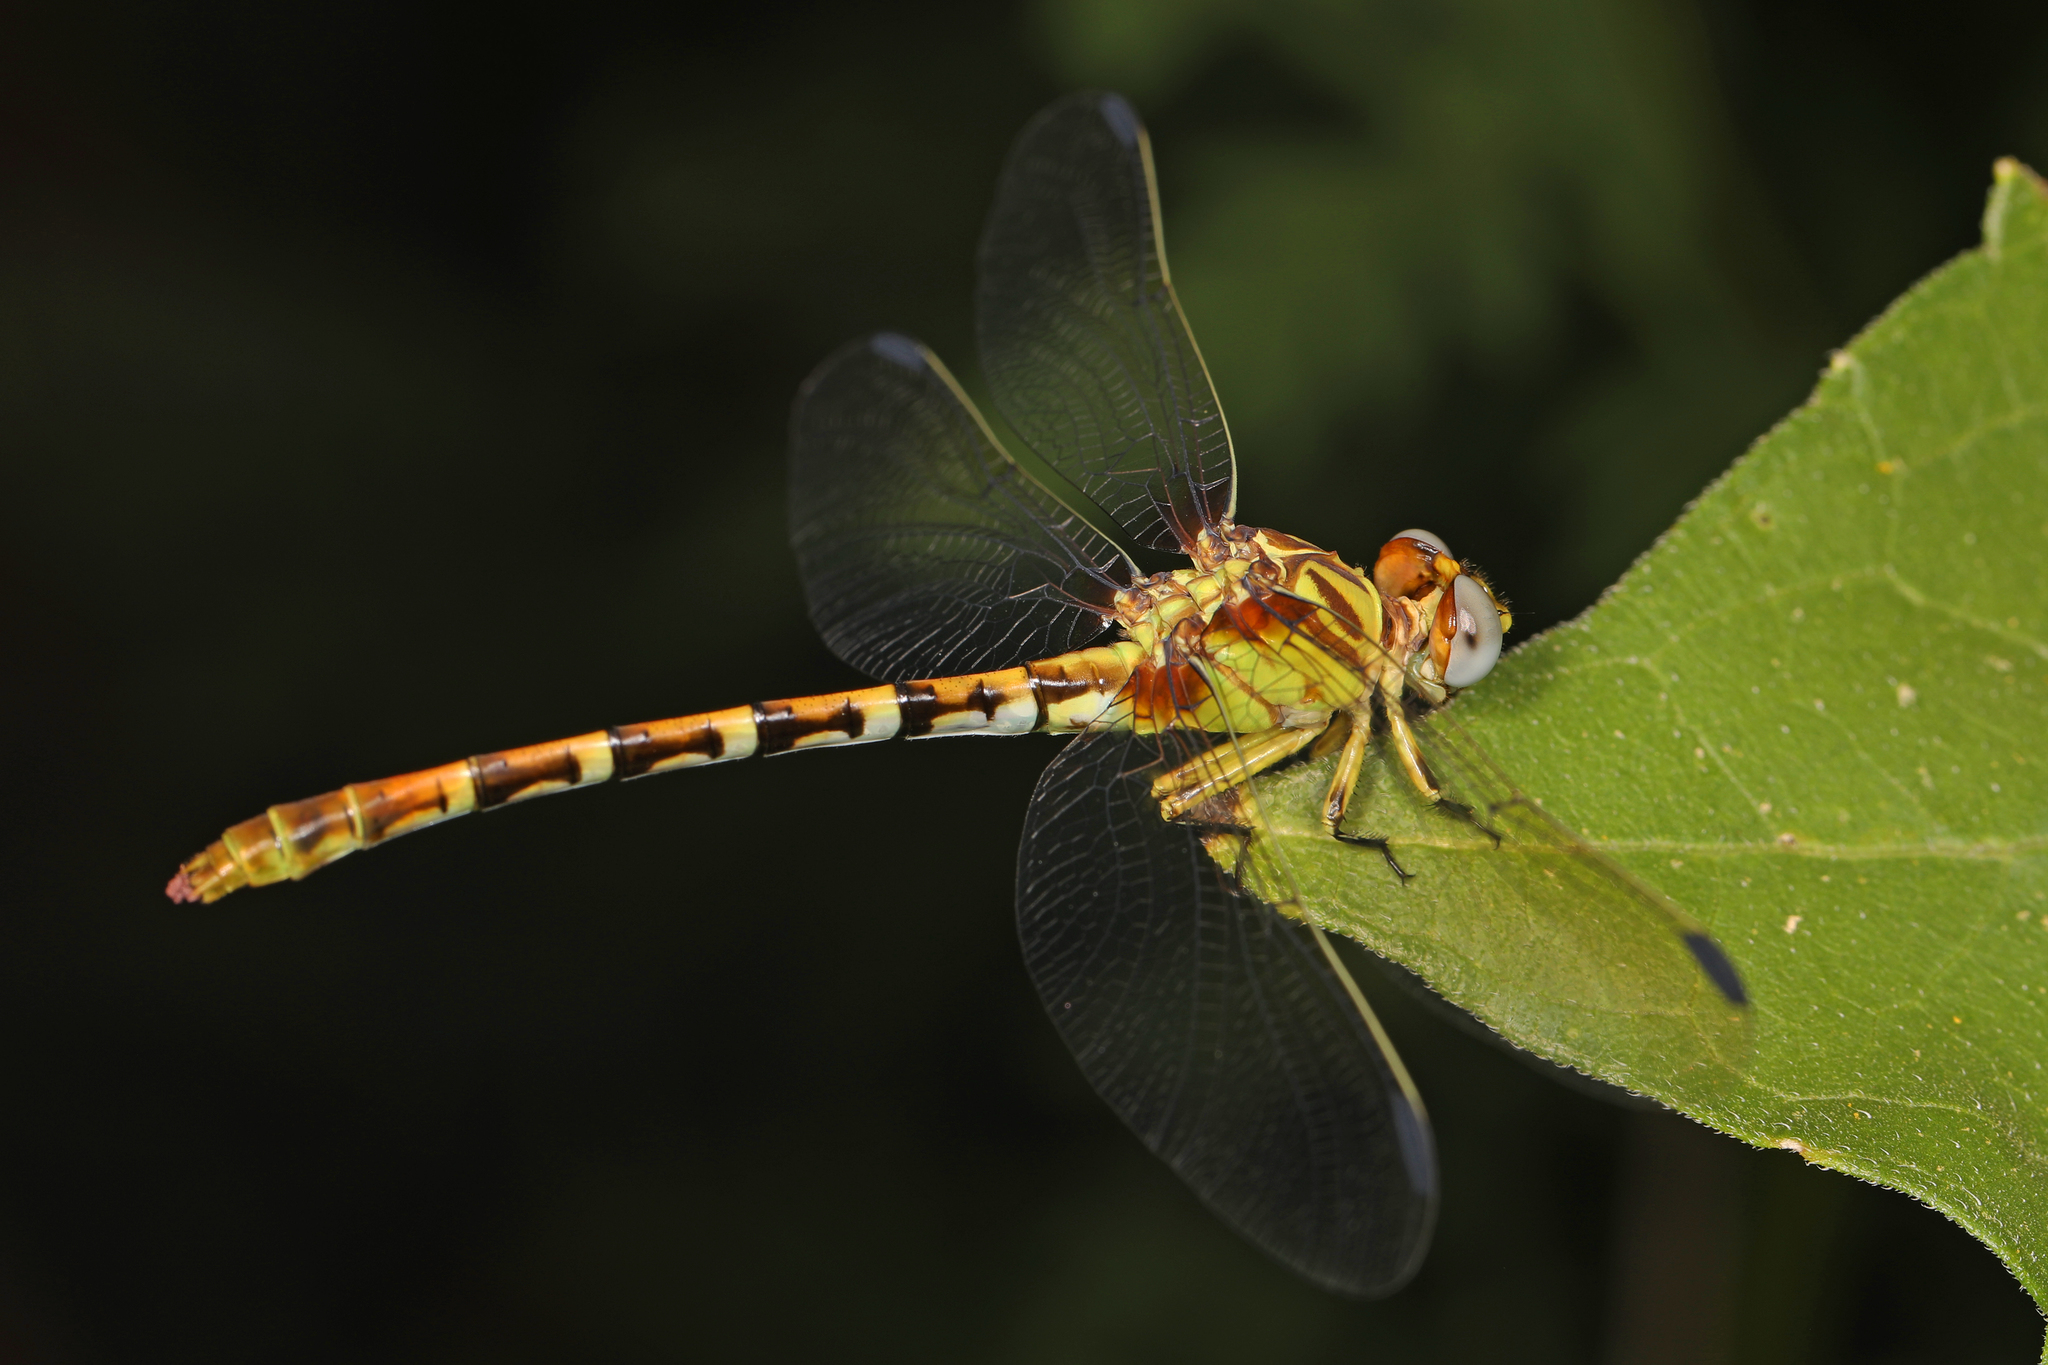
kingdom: Animalia
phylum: Arthropoda
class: Insecta
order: Odonata
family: Gomphidae
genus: Erpetogomphus
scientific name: Erpetogomphus designatus
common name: Eastern ringtail
